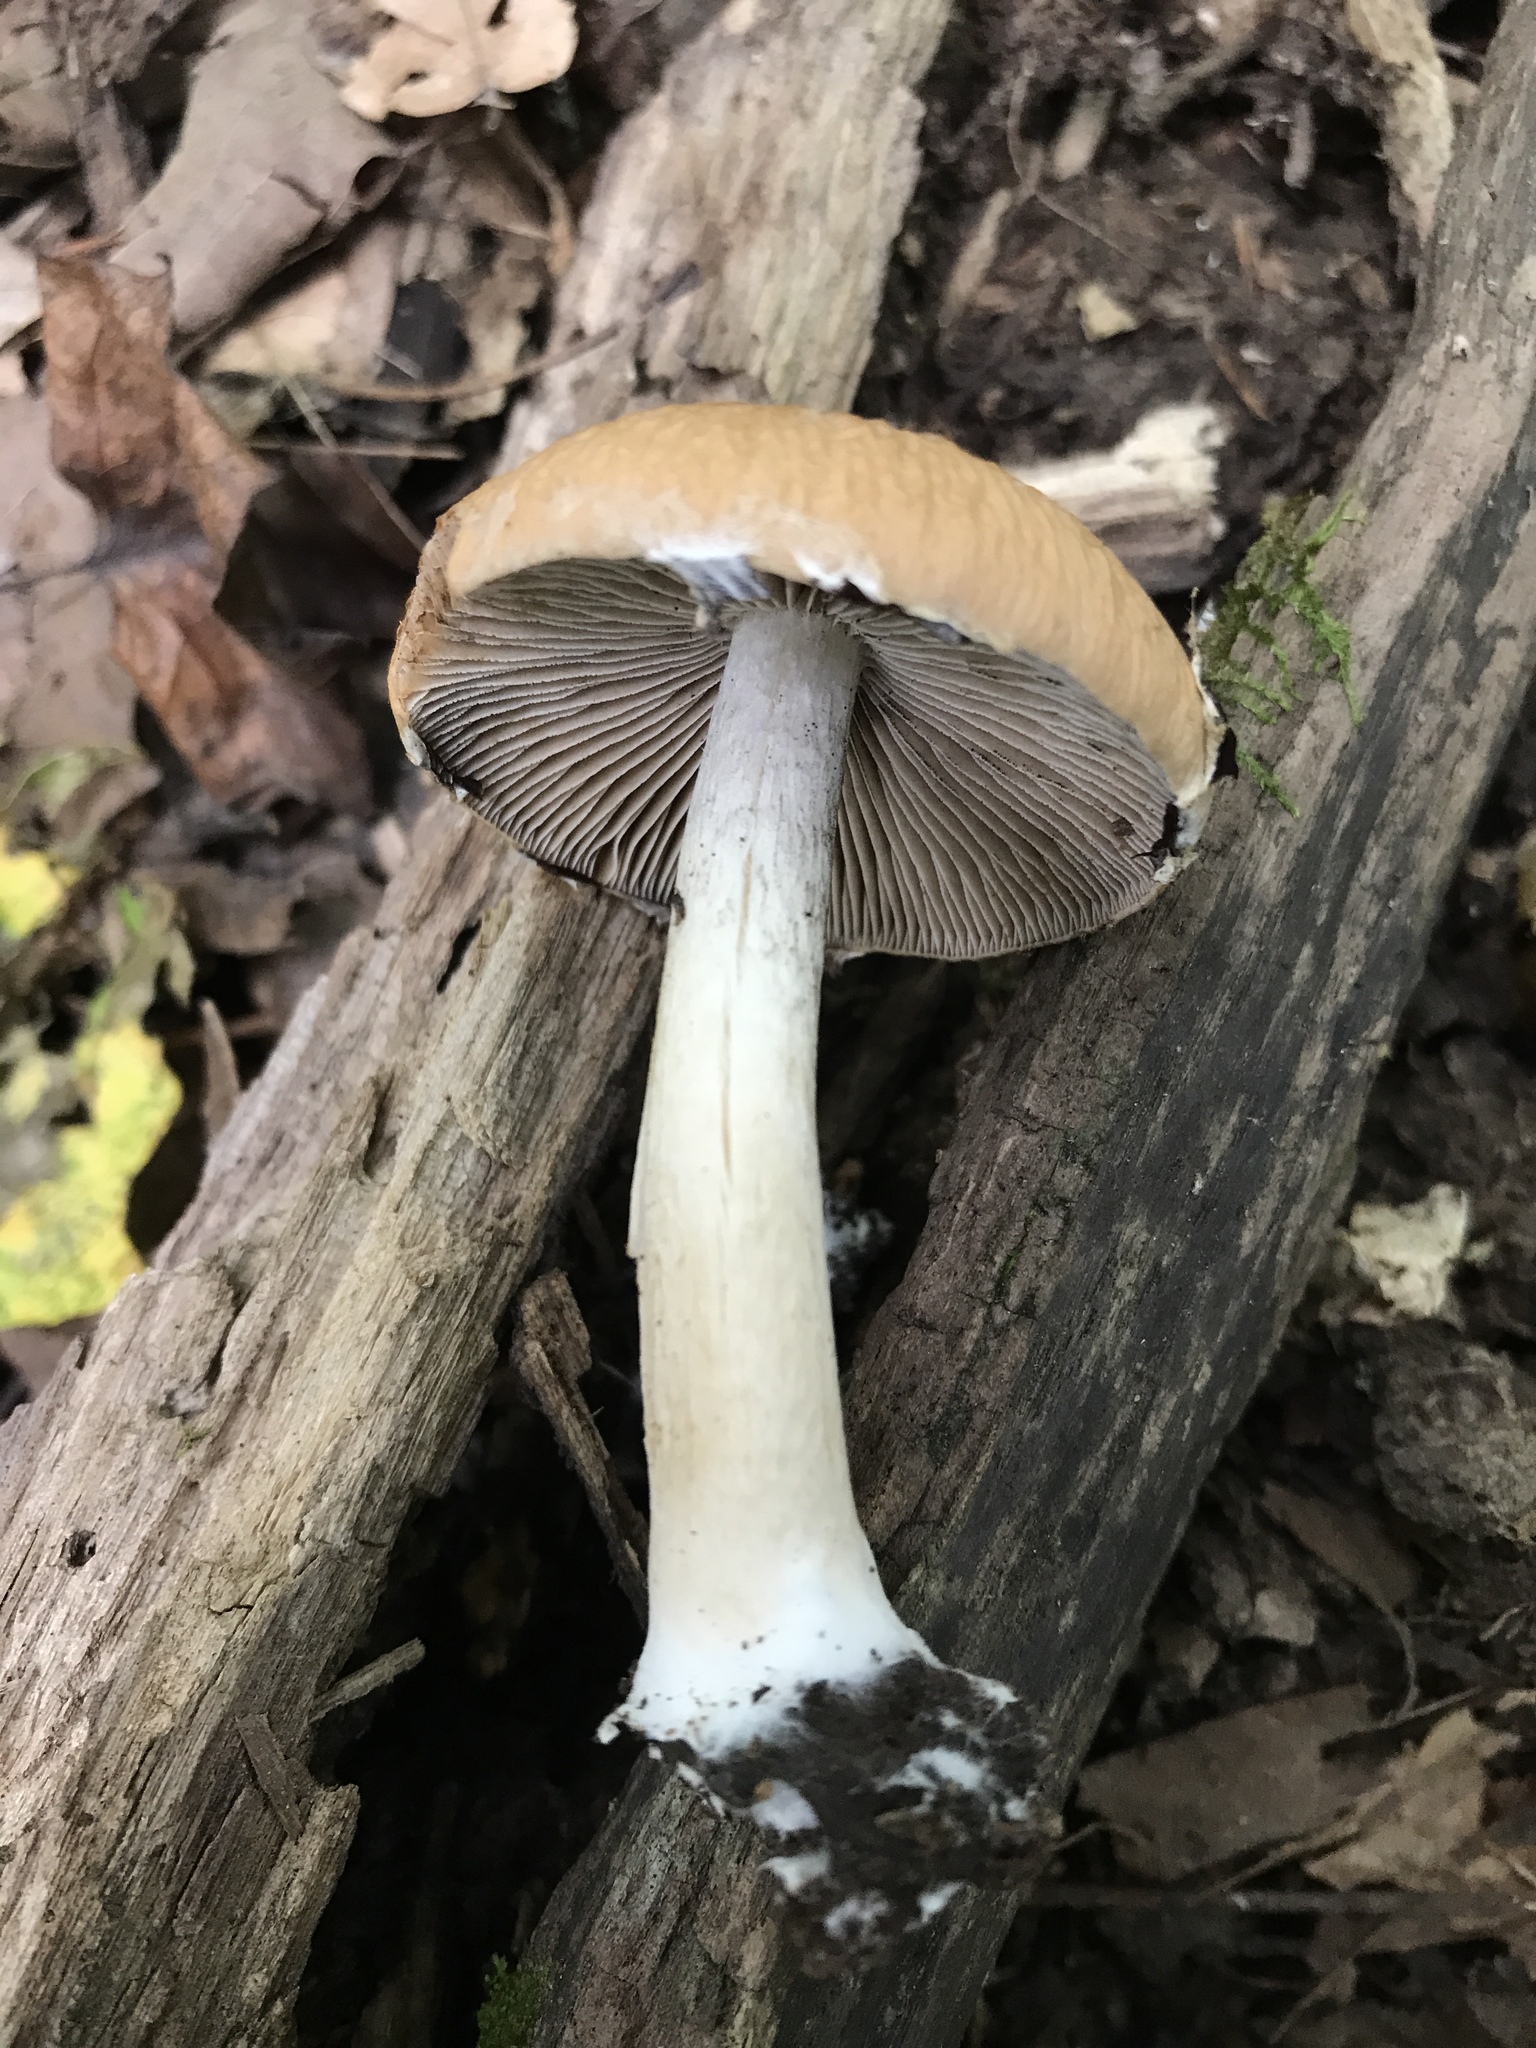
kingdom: Fungi
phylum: Basidiomycota
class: Agaricomycetes
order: Agaricales
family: Psathyrellaceae
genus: Typhrasa
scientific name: Typhrasa gossypina
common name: Wrinkled psathyrella
